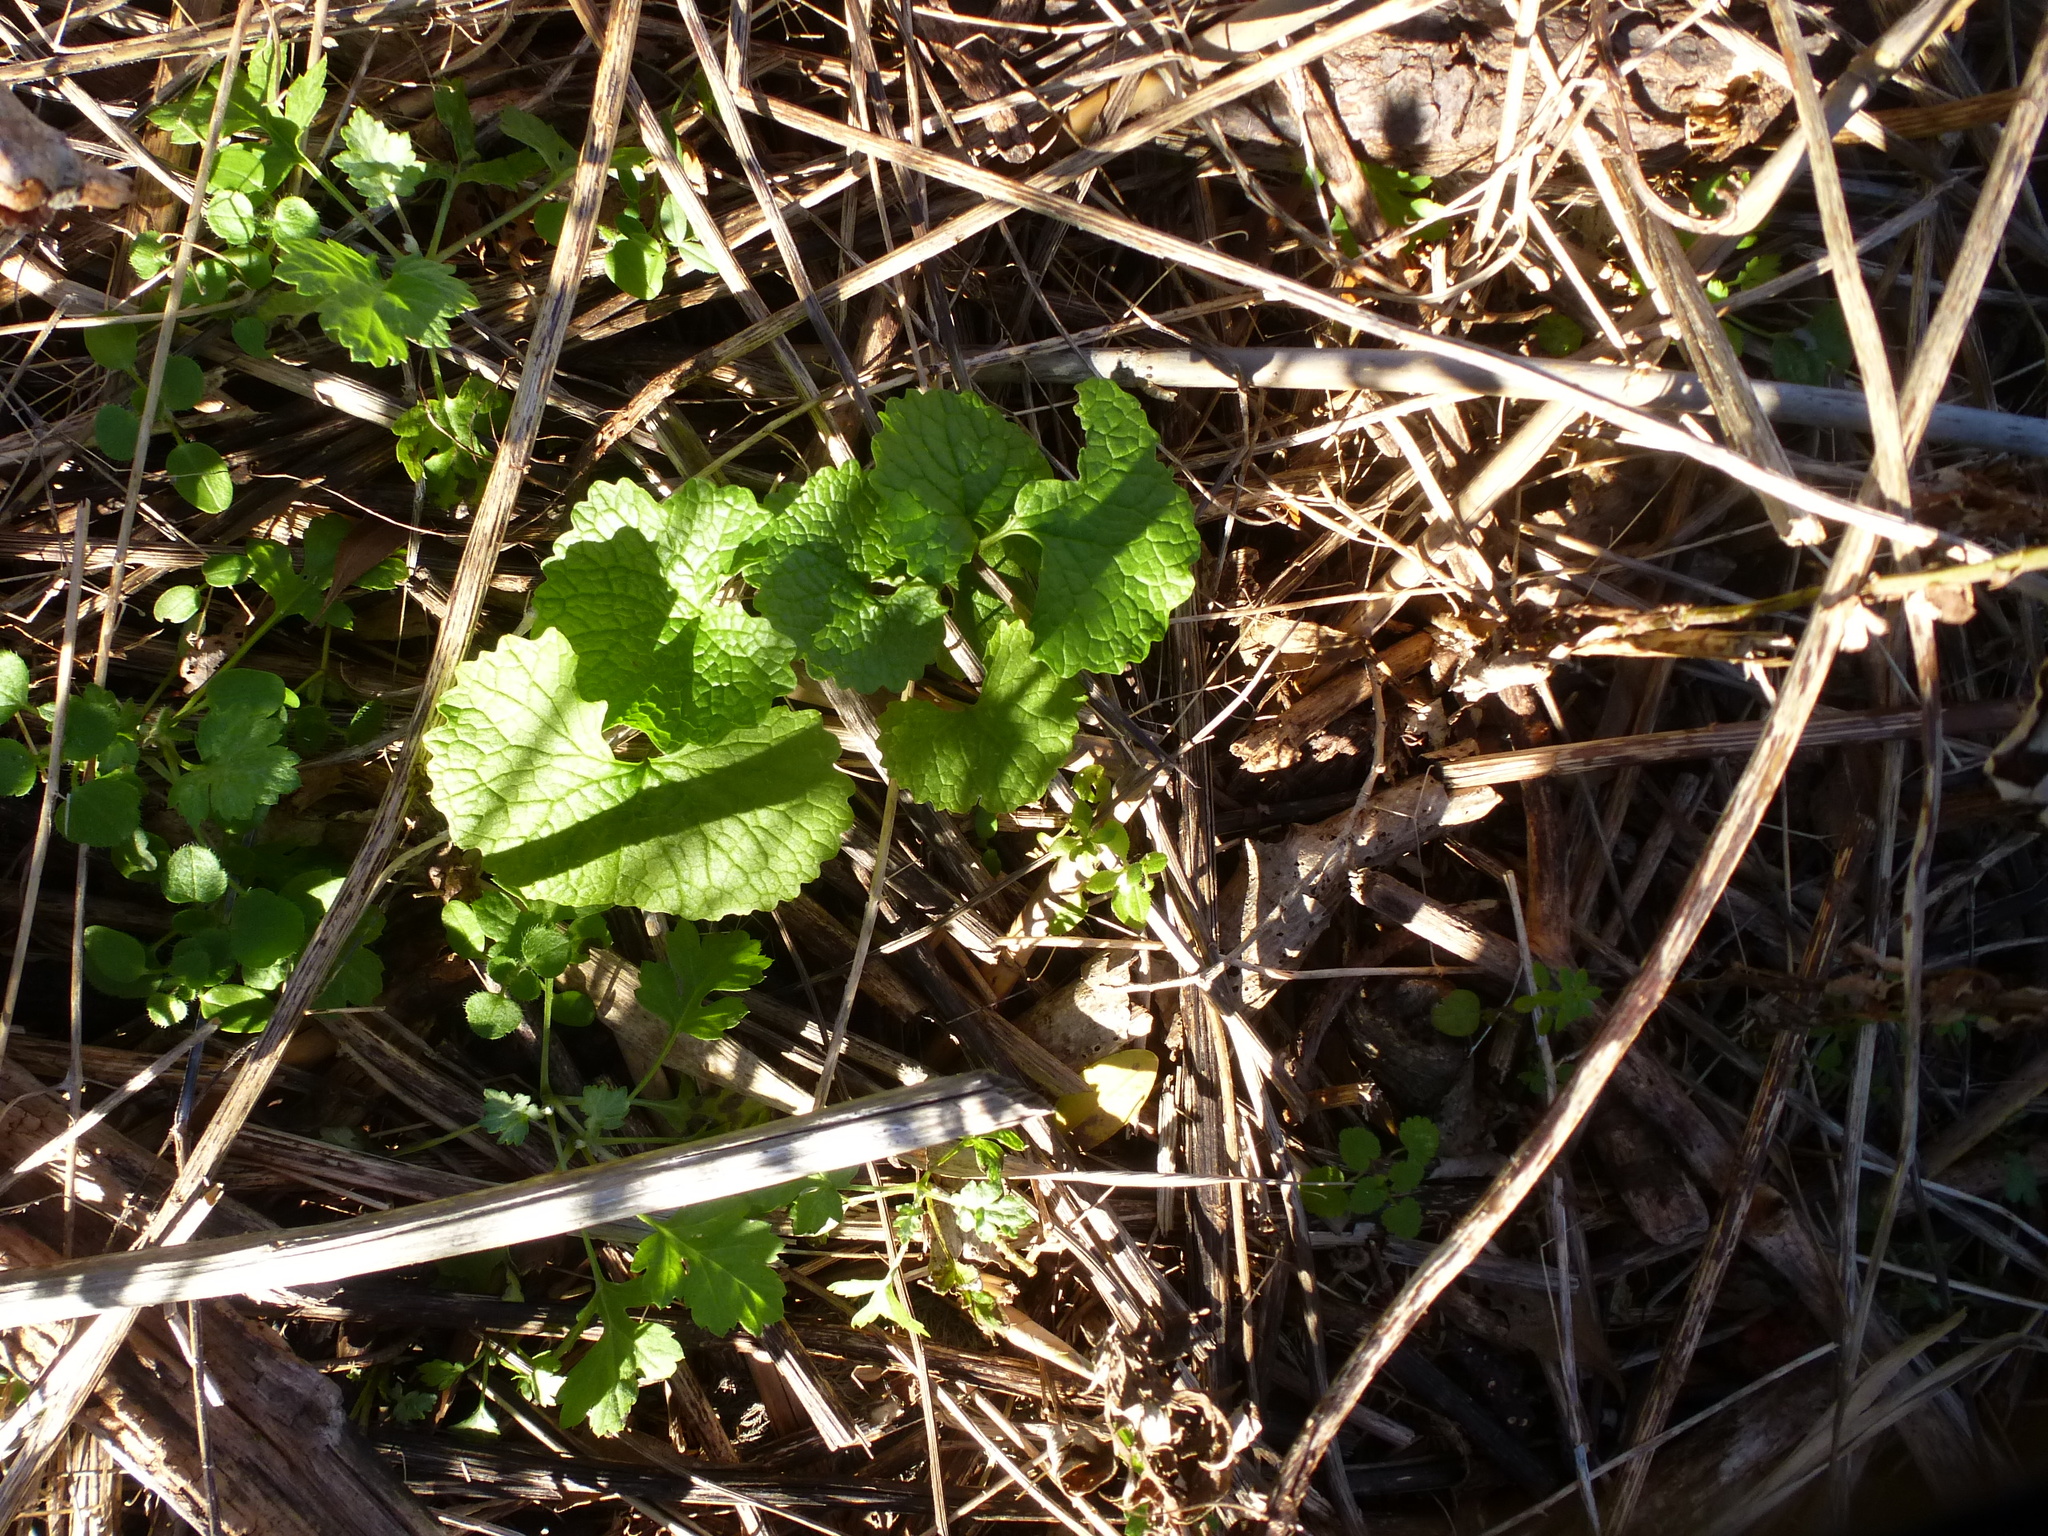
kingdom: Plantae
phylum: Tracheophyta
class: Magnoliopsida
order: Brassicales
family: Brassicaceae
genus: Alliaria
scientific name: Alliaria petiolata
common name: Garlic mustard
